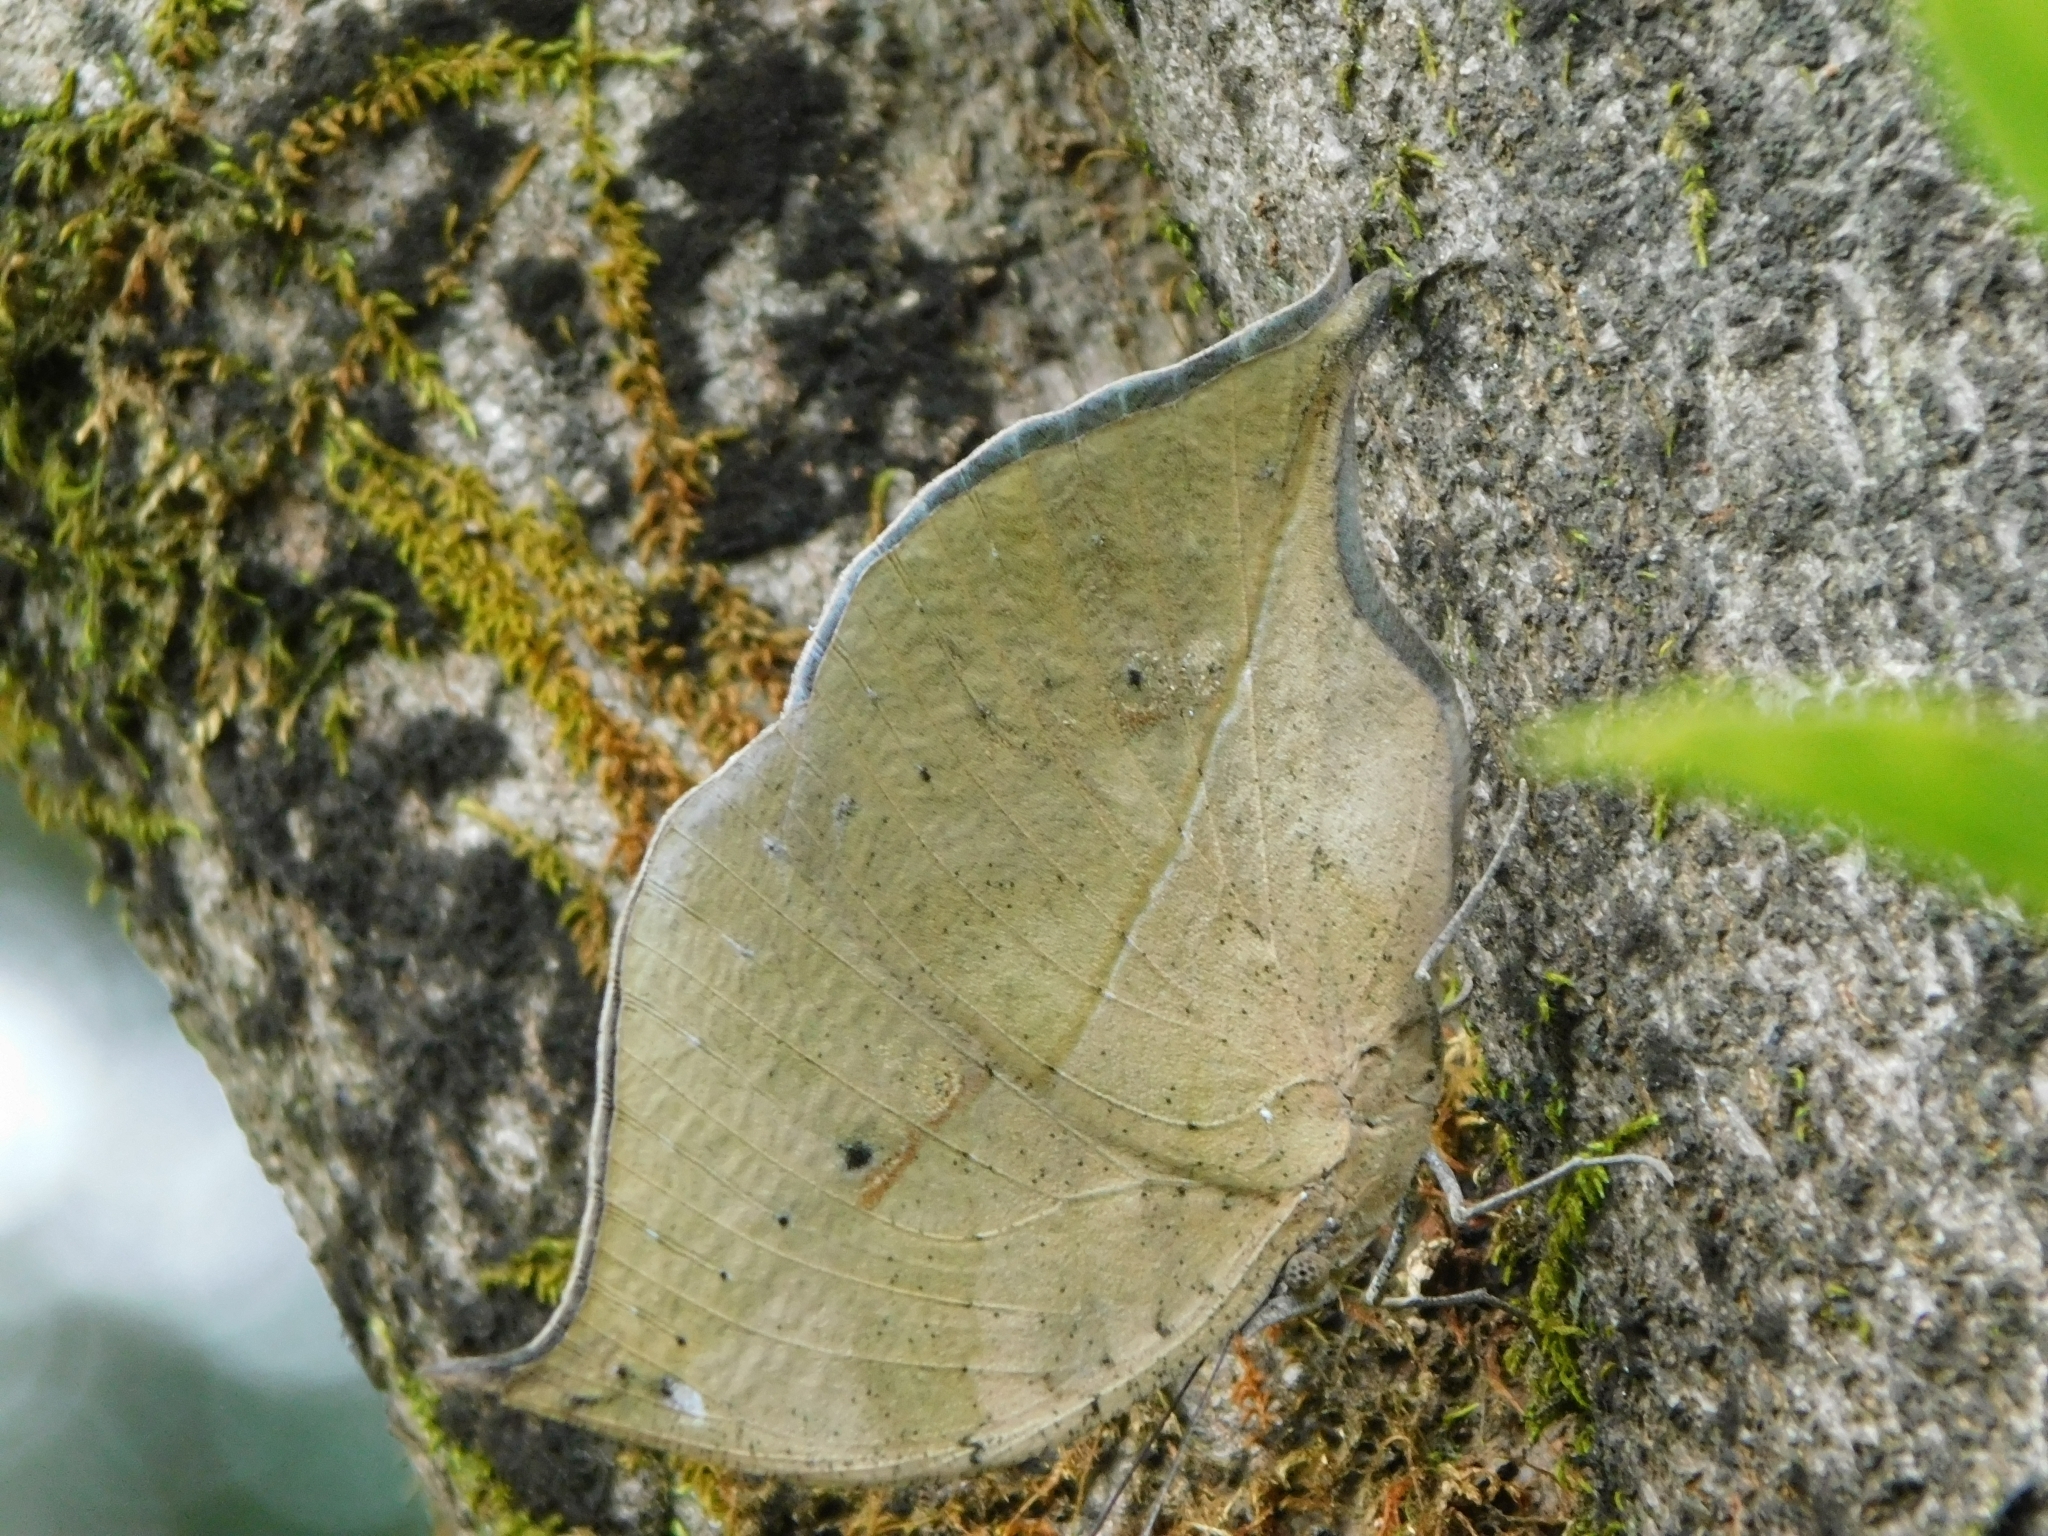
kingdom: Animalia
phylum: Arthropoda
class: Insecta
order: Lepidoptera
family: Nymphalidae
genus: Kallima
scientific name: Kallima horsfieldii
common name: Sahyadri blue oakleaf
